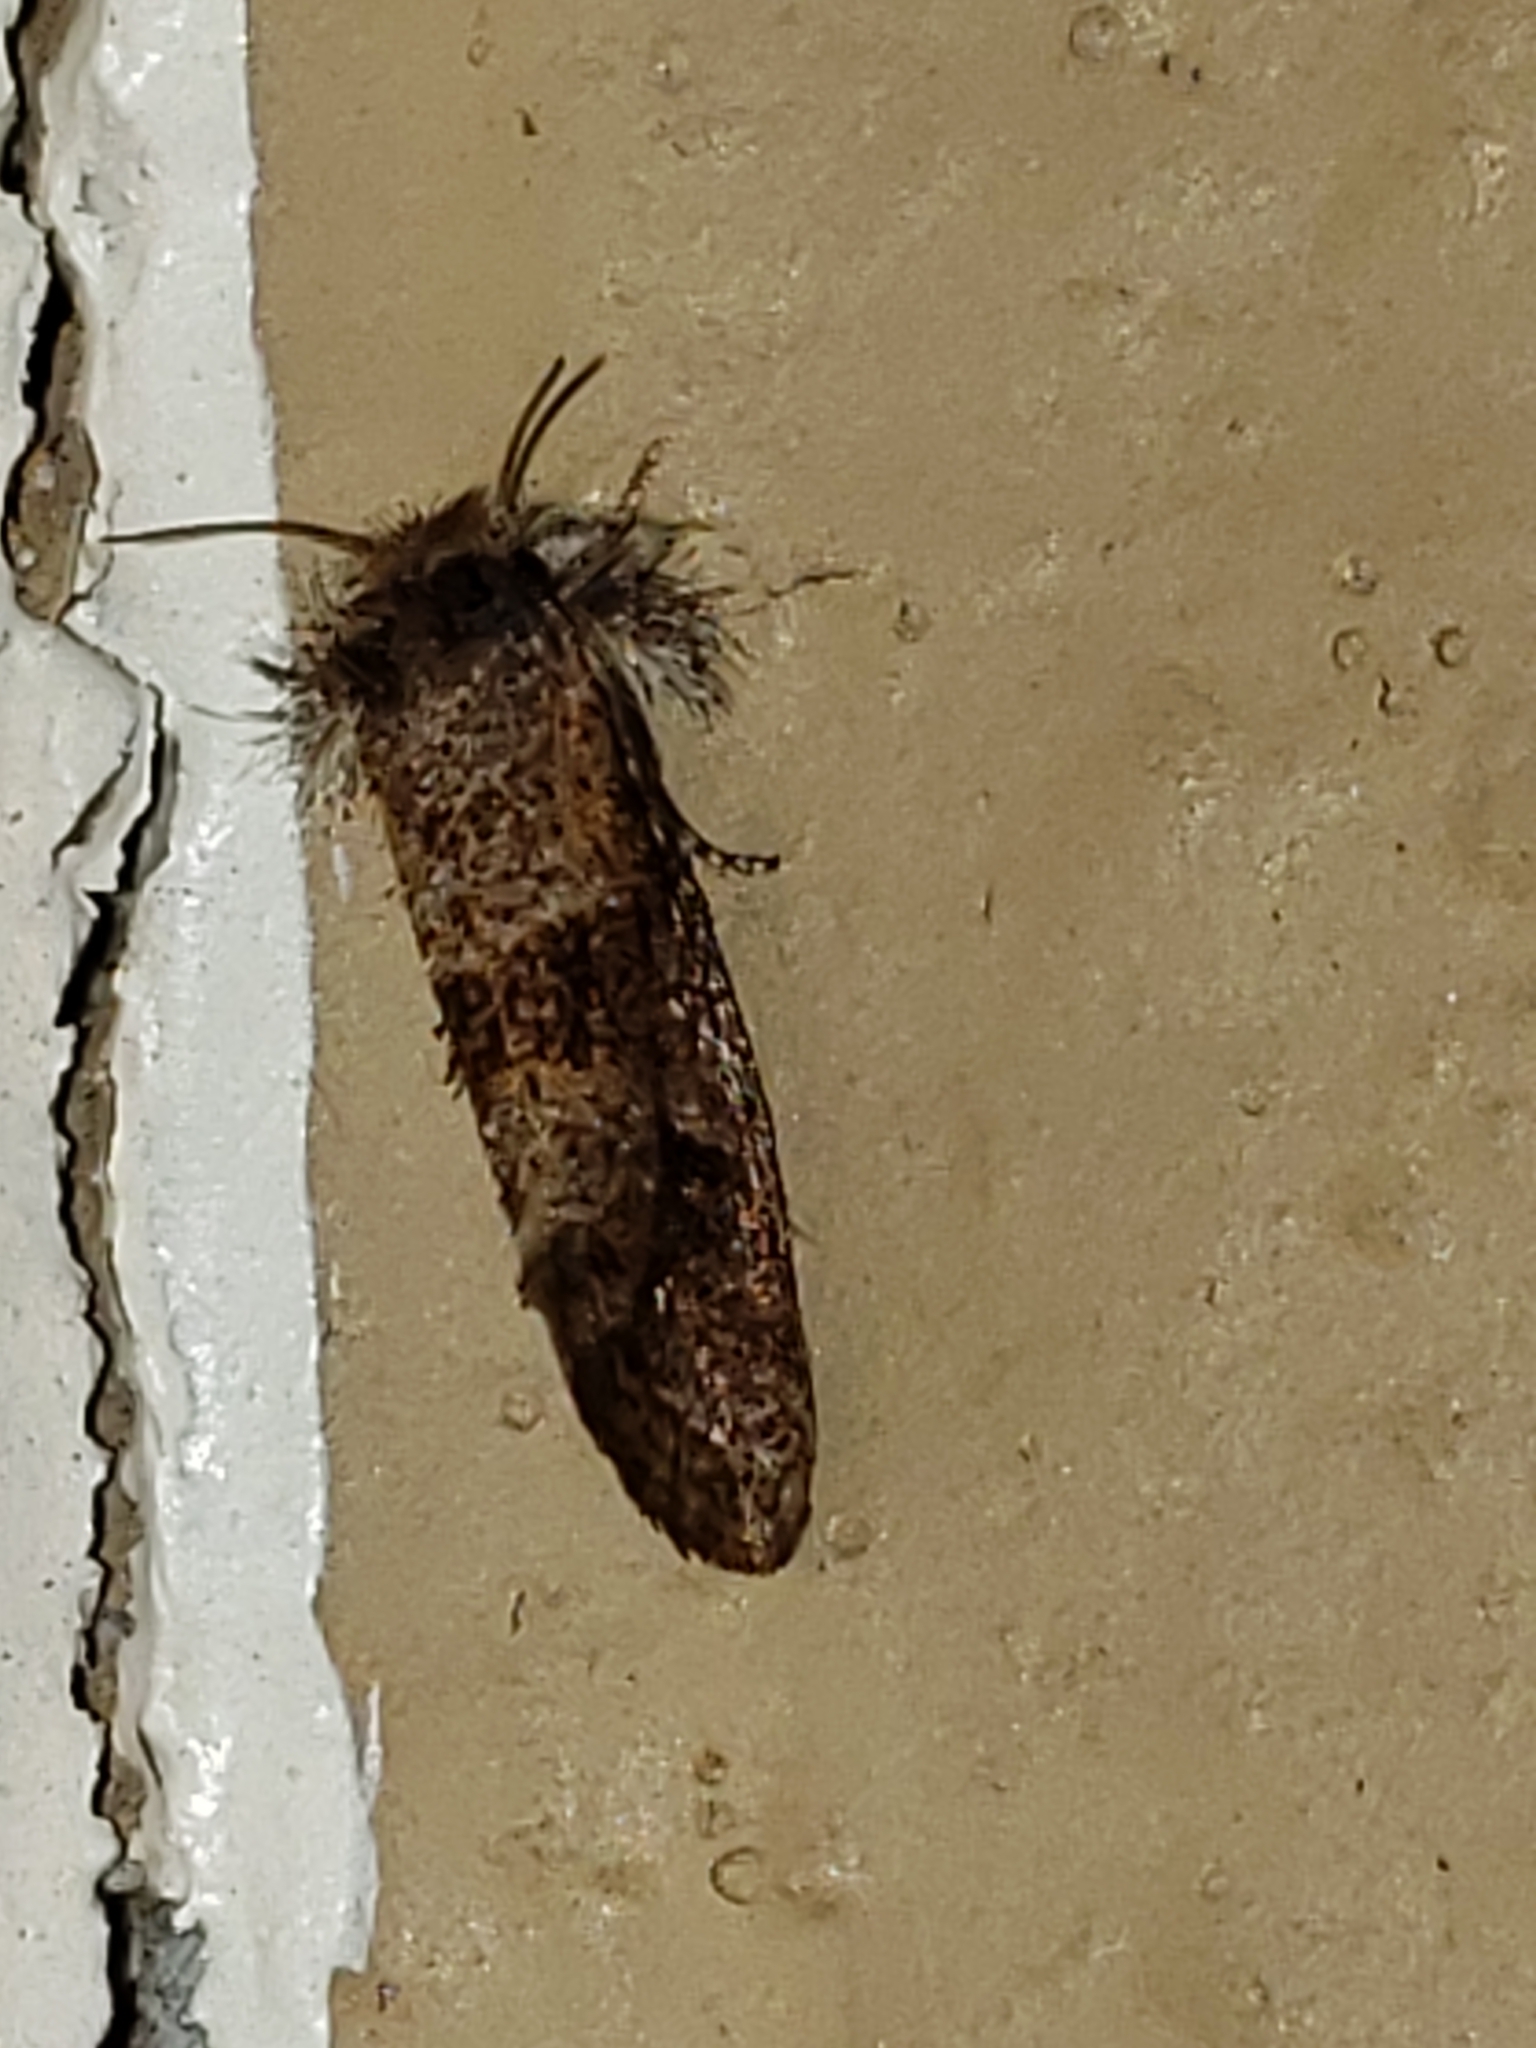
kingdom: Animalia
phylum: Arthropoda
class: Insecta
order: Lepidoptera
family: Tineidae
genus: Acrolophus
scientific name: Acrolophus panamae
